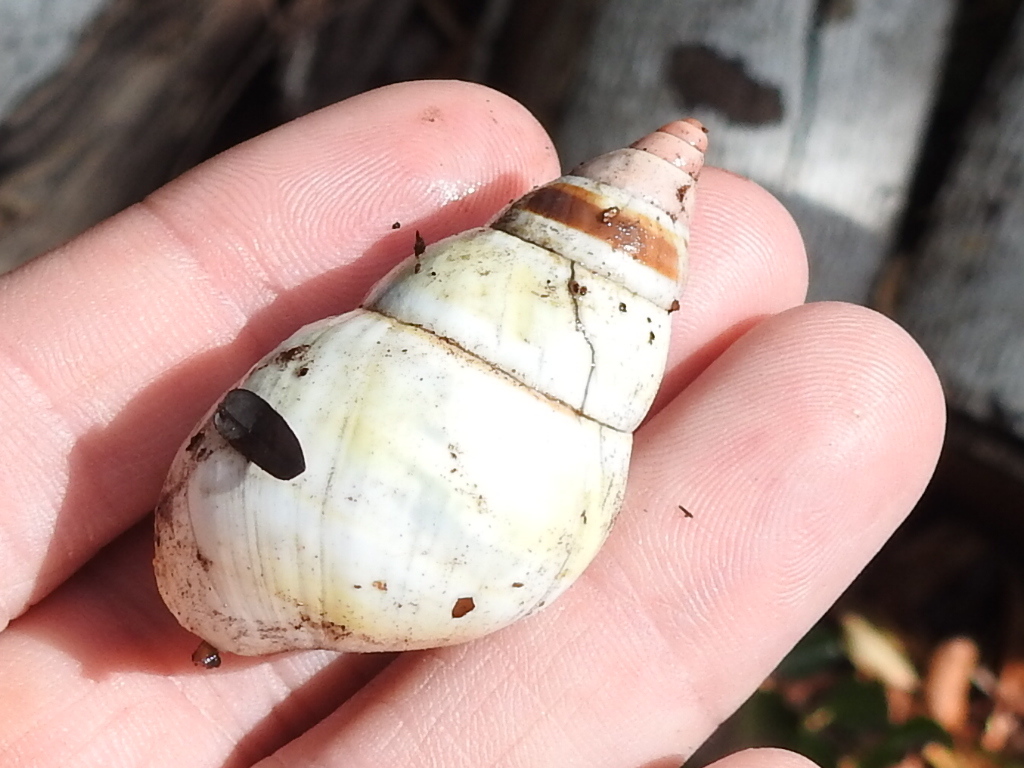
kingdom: Animalia
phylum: Mollusca
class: Gastropoda
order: Stylommatophora
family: Orthalicidae
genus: Liguus
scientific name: Liguus fasciatus
